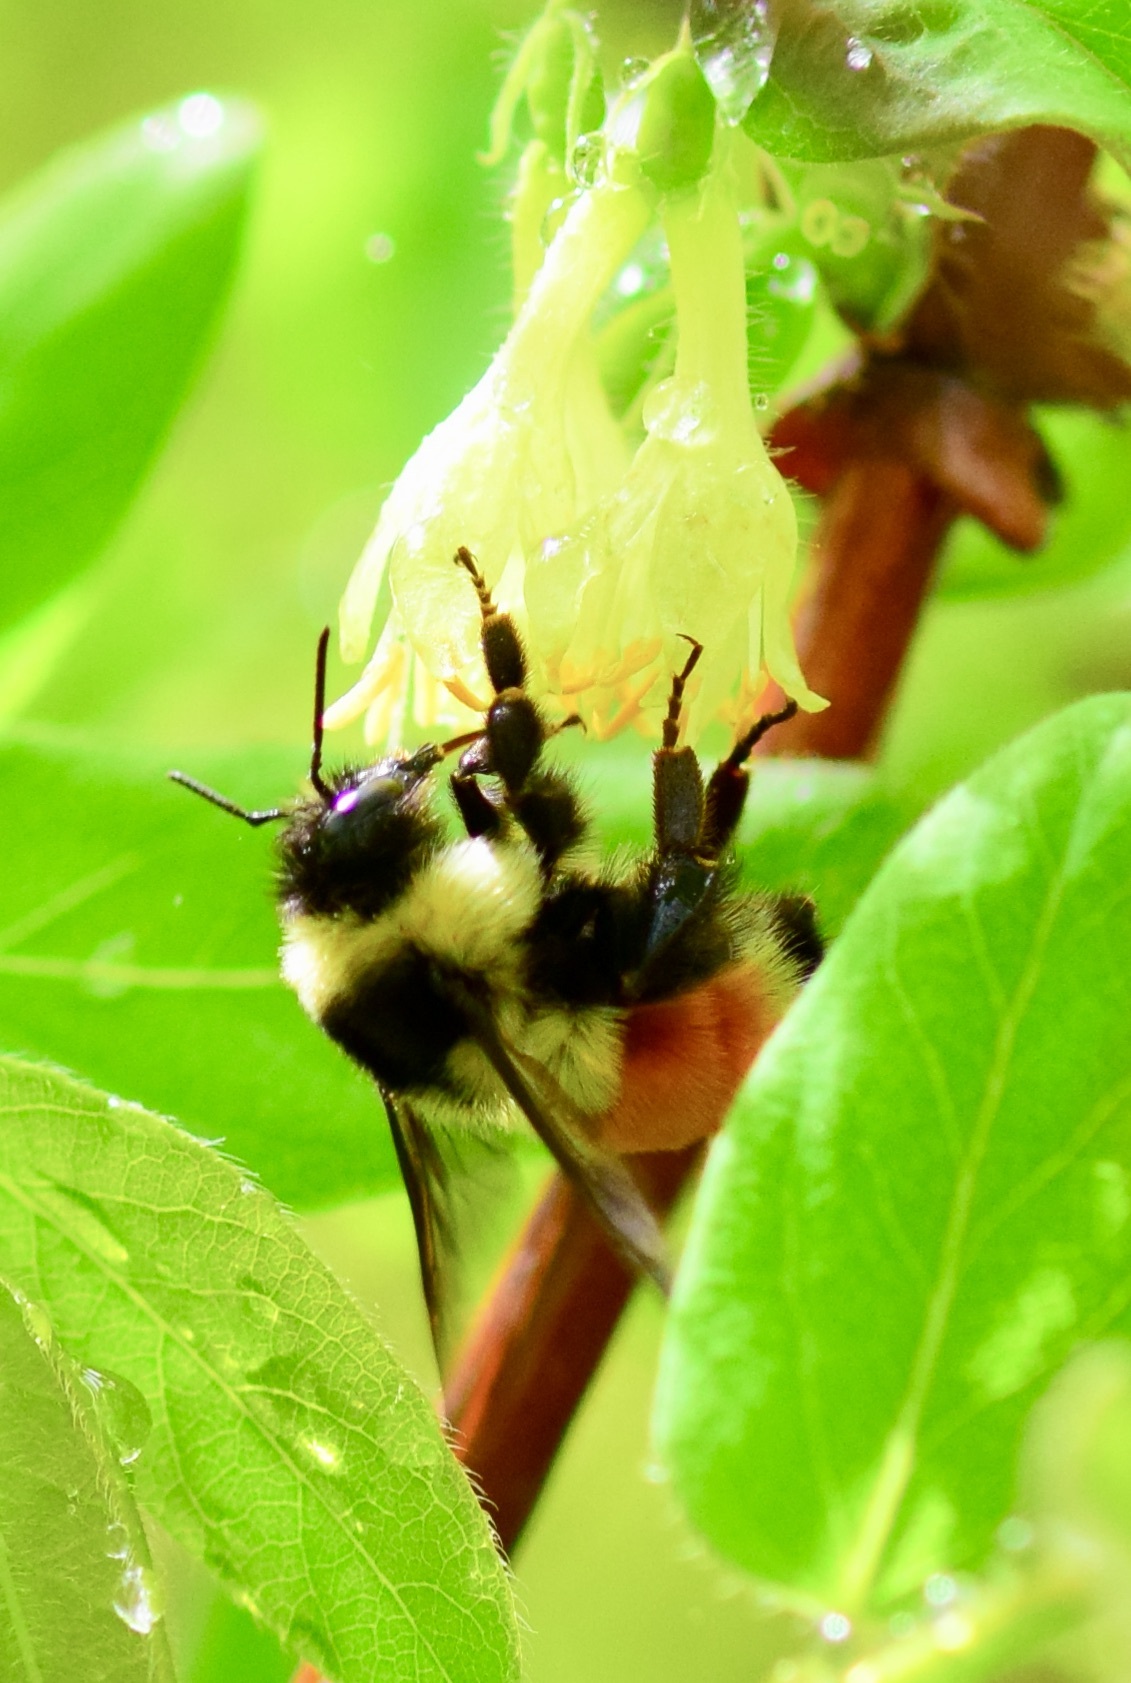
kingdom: Animalia
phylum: Arthropoda
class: Insecta
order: Hymenoptera
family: Apidae
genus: Bombus
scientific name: Bombus ternarius
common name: Tri-colored bumble bee
